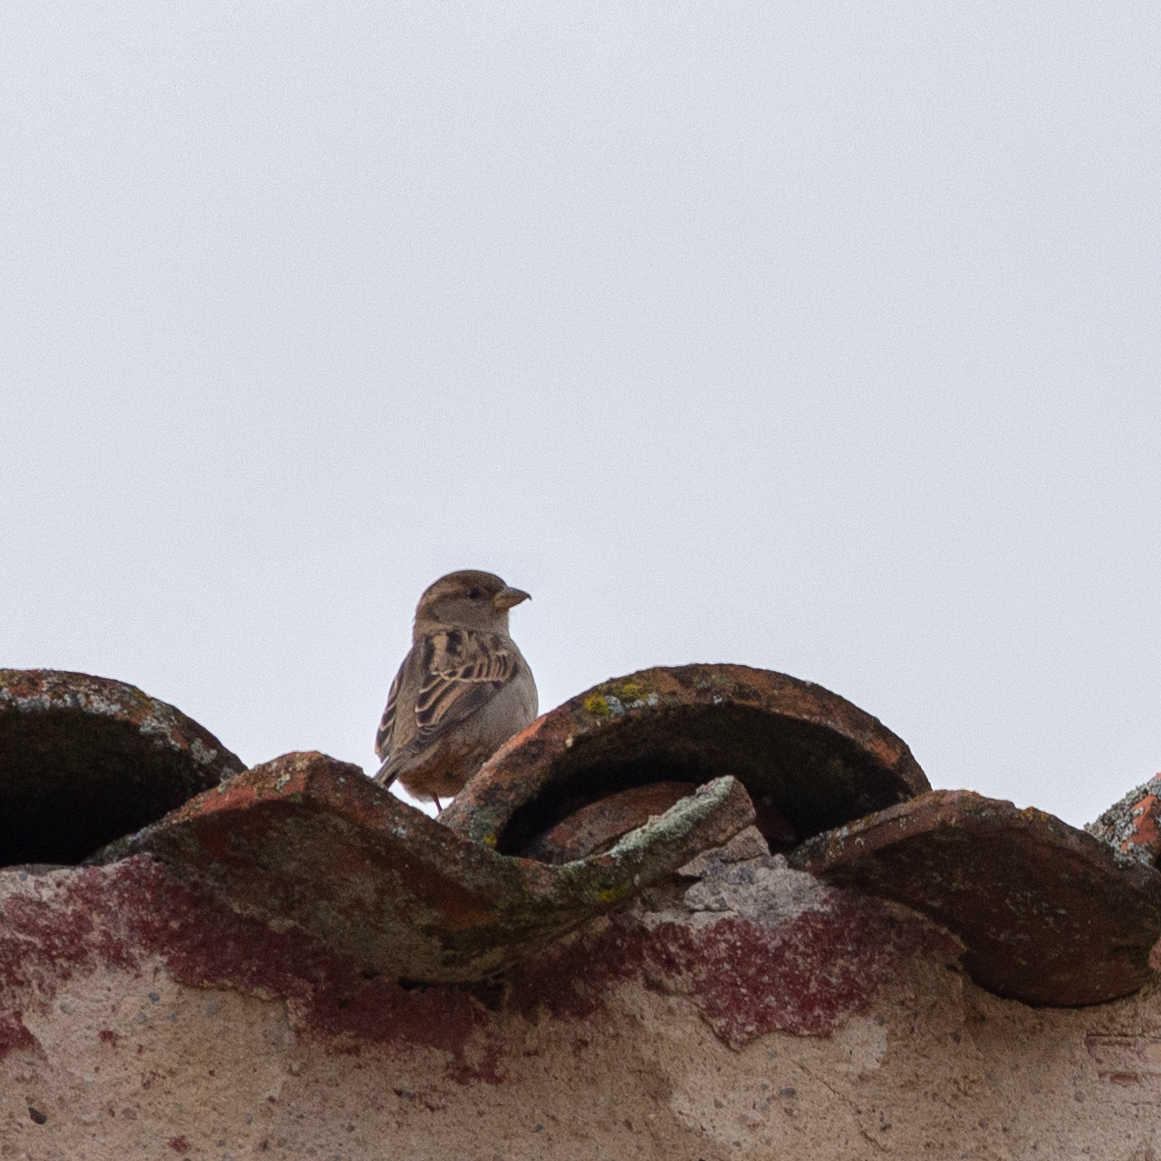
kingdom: Animalia
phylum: Chordata
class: Aves
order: Passeriformes
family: Passeridae
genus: Passer
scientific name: Passer domesticus
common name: House sparrow
